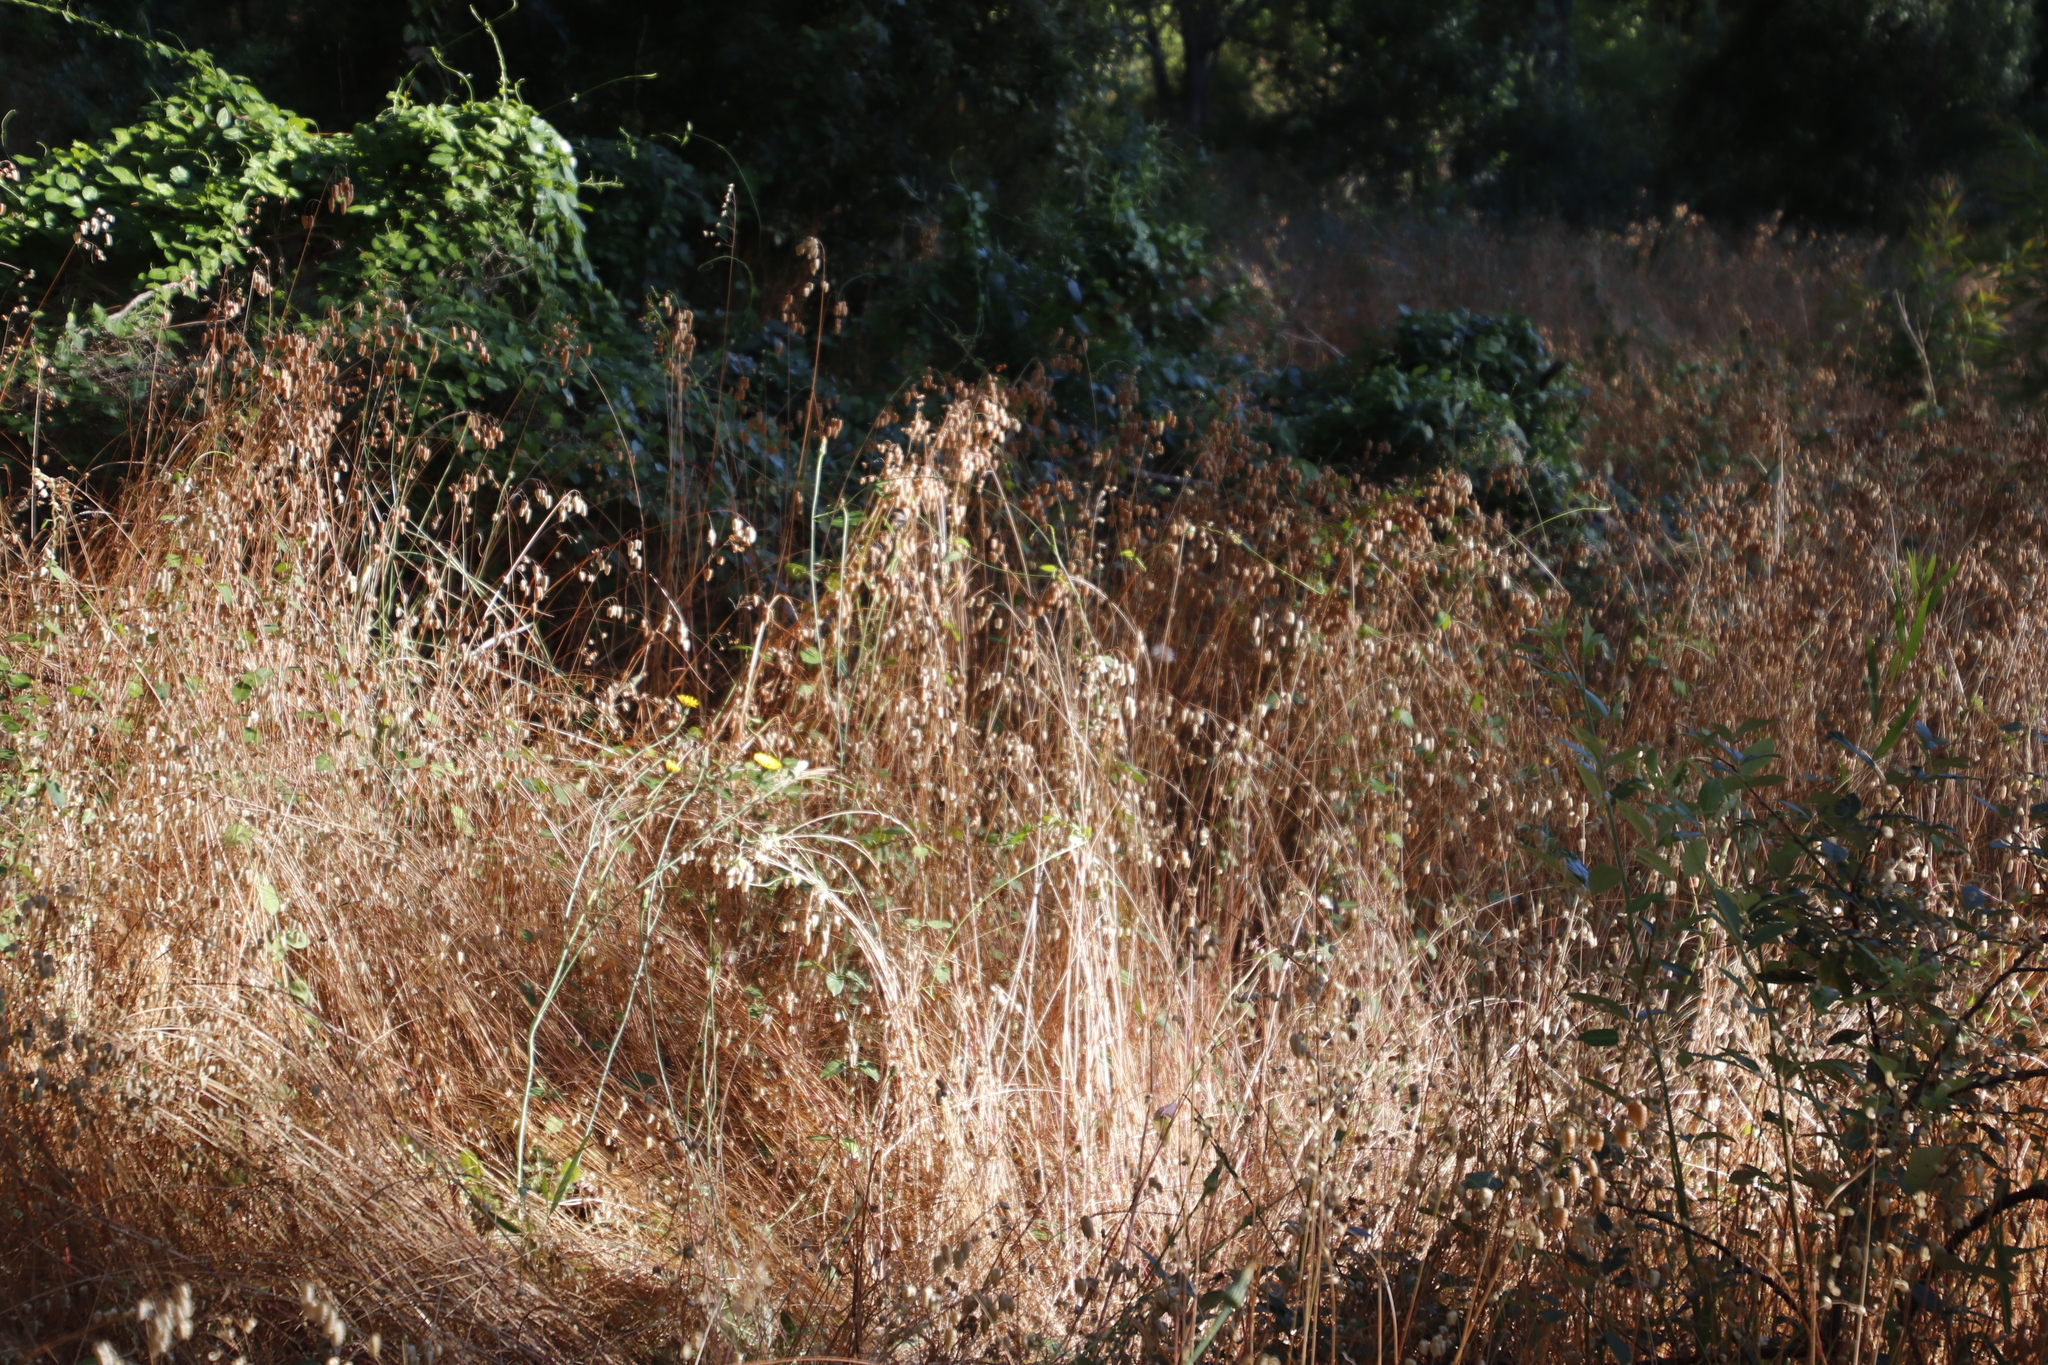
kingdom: Plantae
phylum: Tracheophyta
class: Liliopsida
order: Poales
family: Poaceae
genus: Briza
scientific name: Briza maxima
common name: Big quakinggrass
